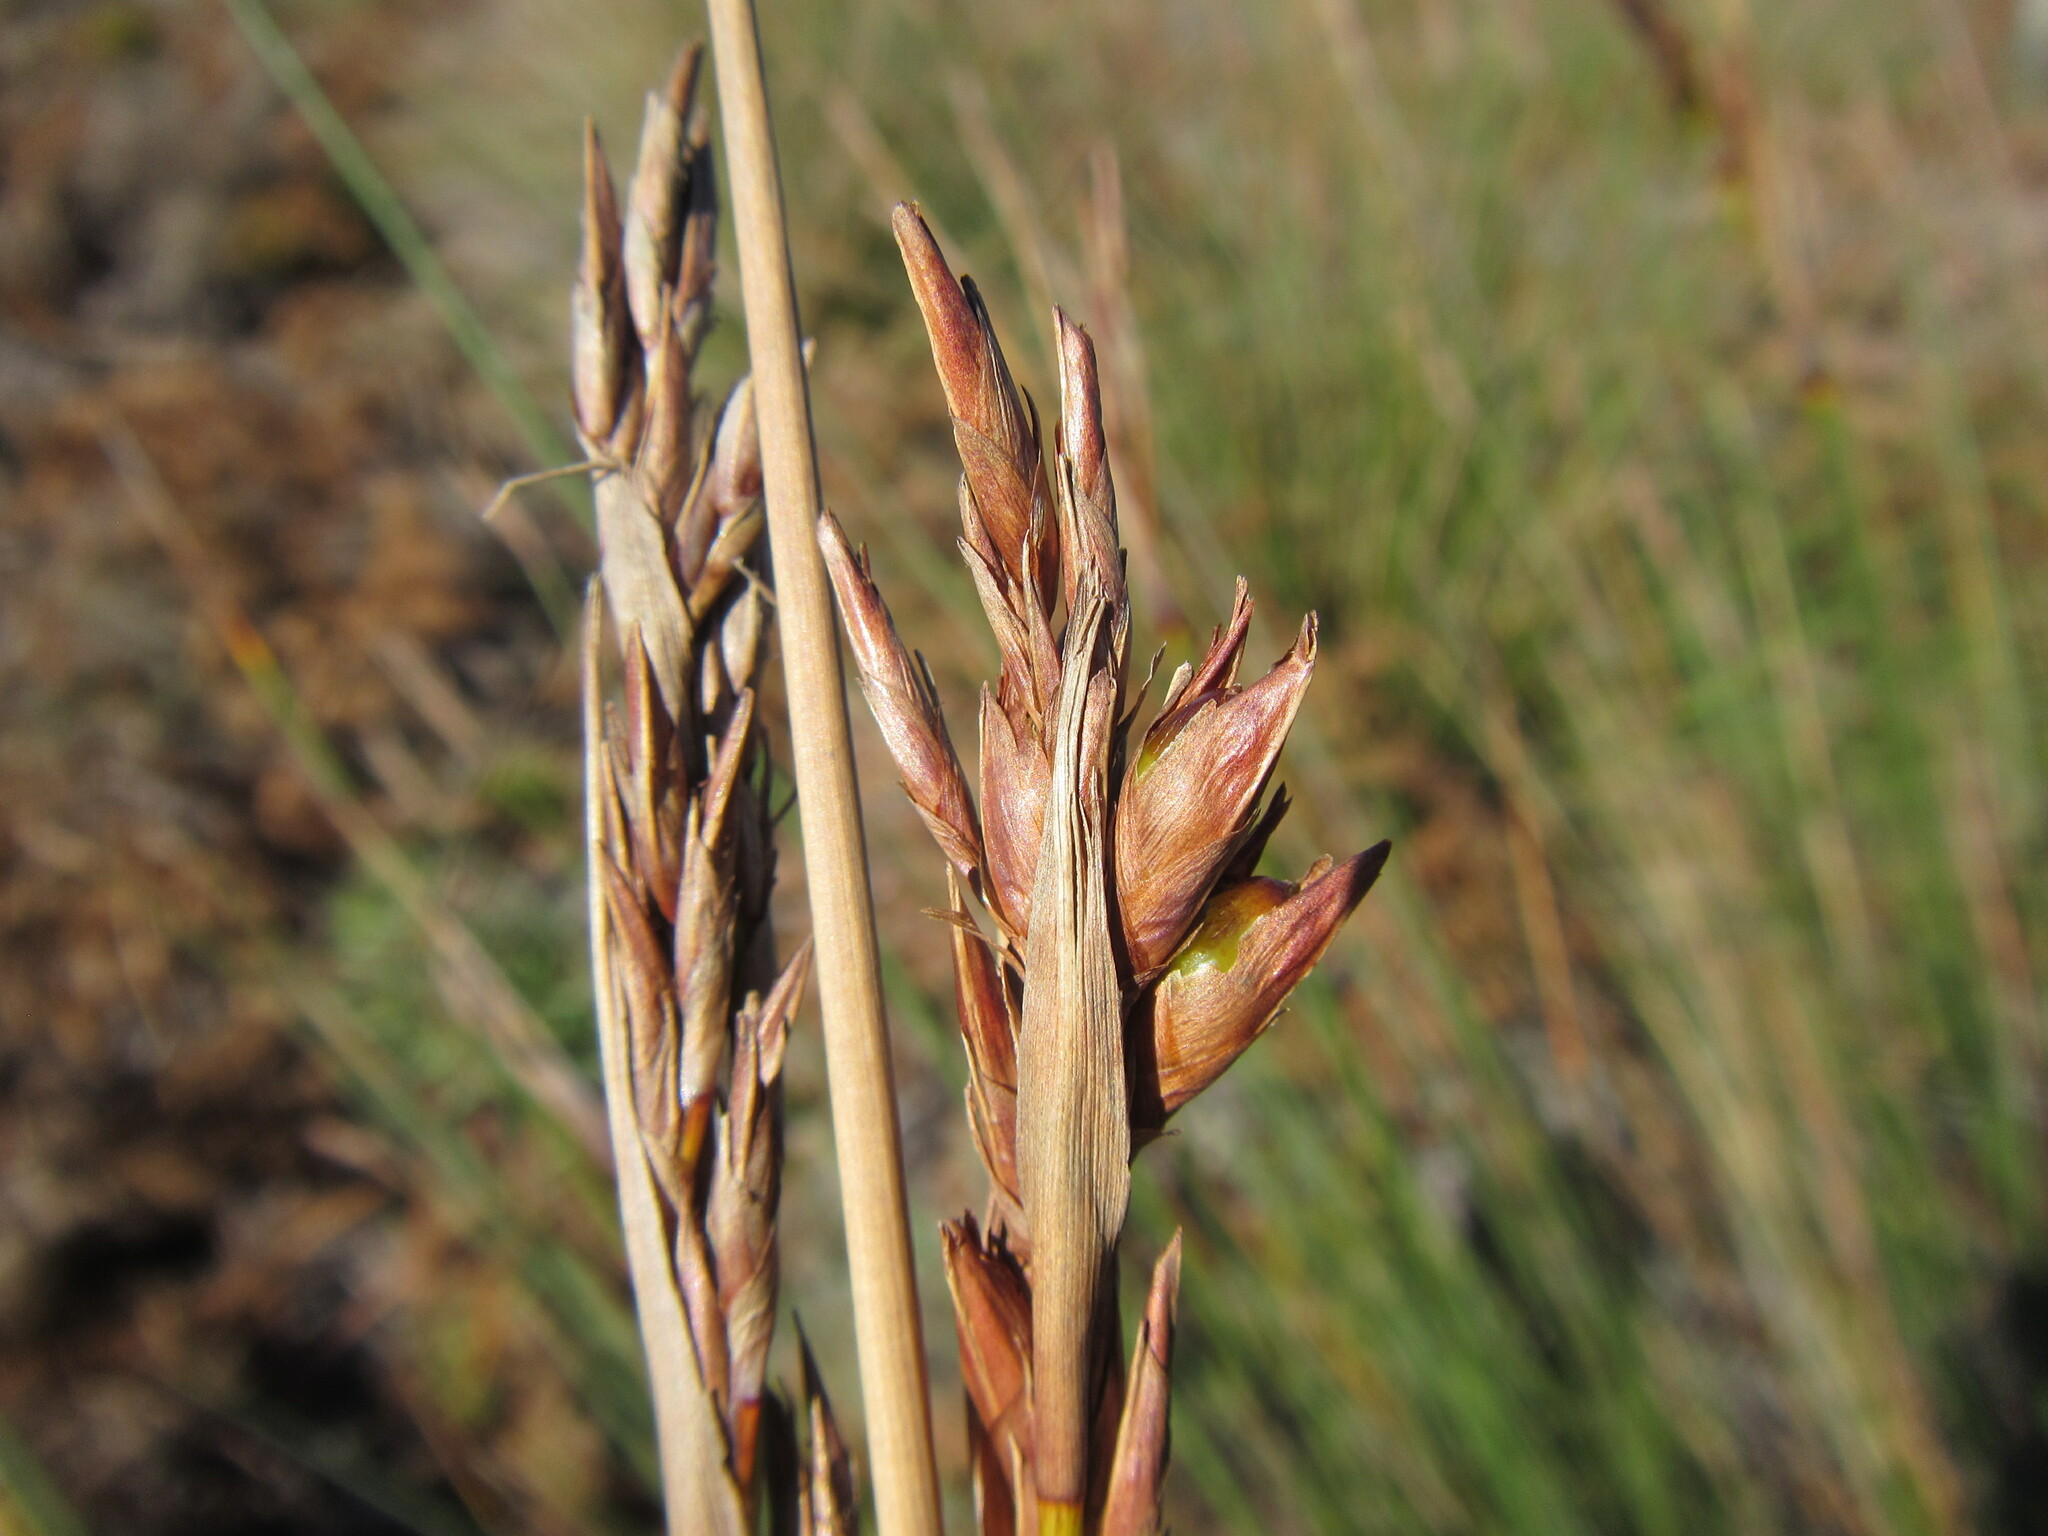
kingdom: Plantae
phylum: Tracheophyta
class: Liliopsida
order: Poales
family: Cyperaceae
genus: Neesenbeckia
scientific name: Neesenbeckia punctoria
